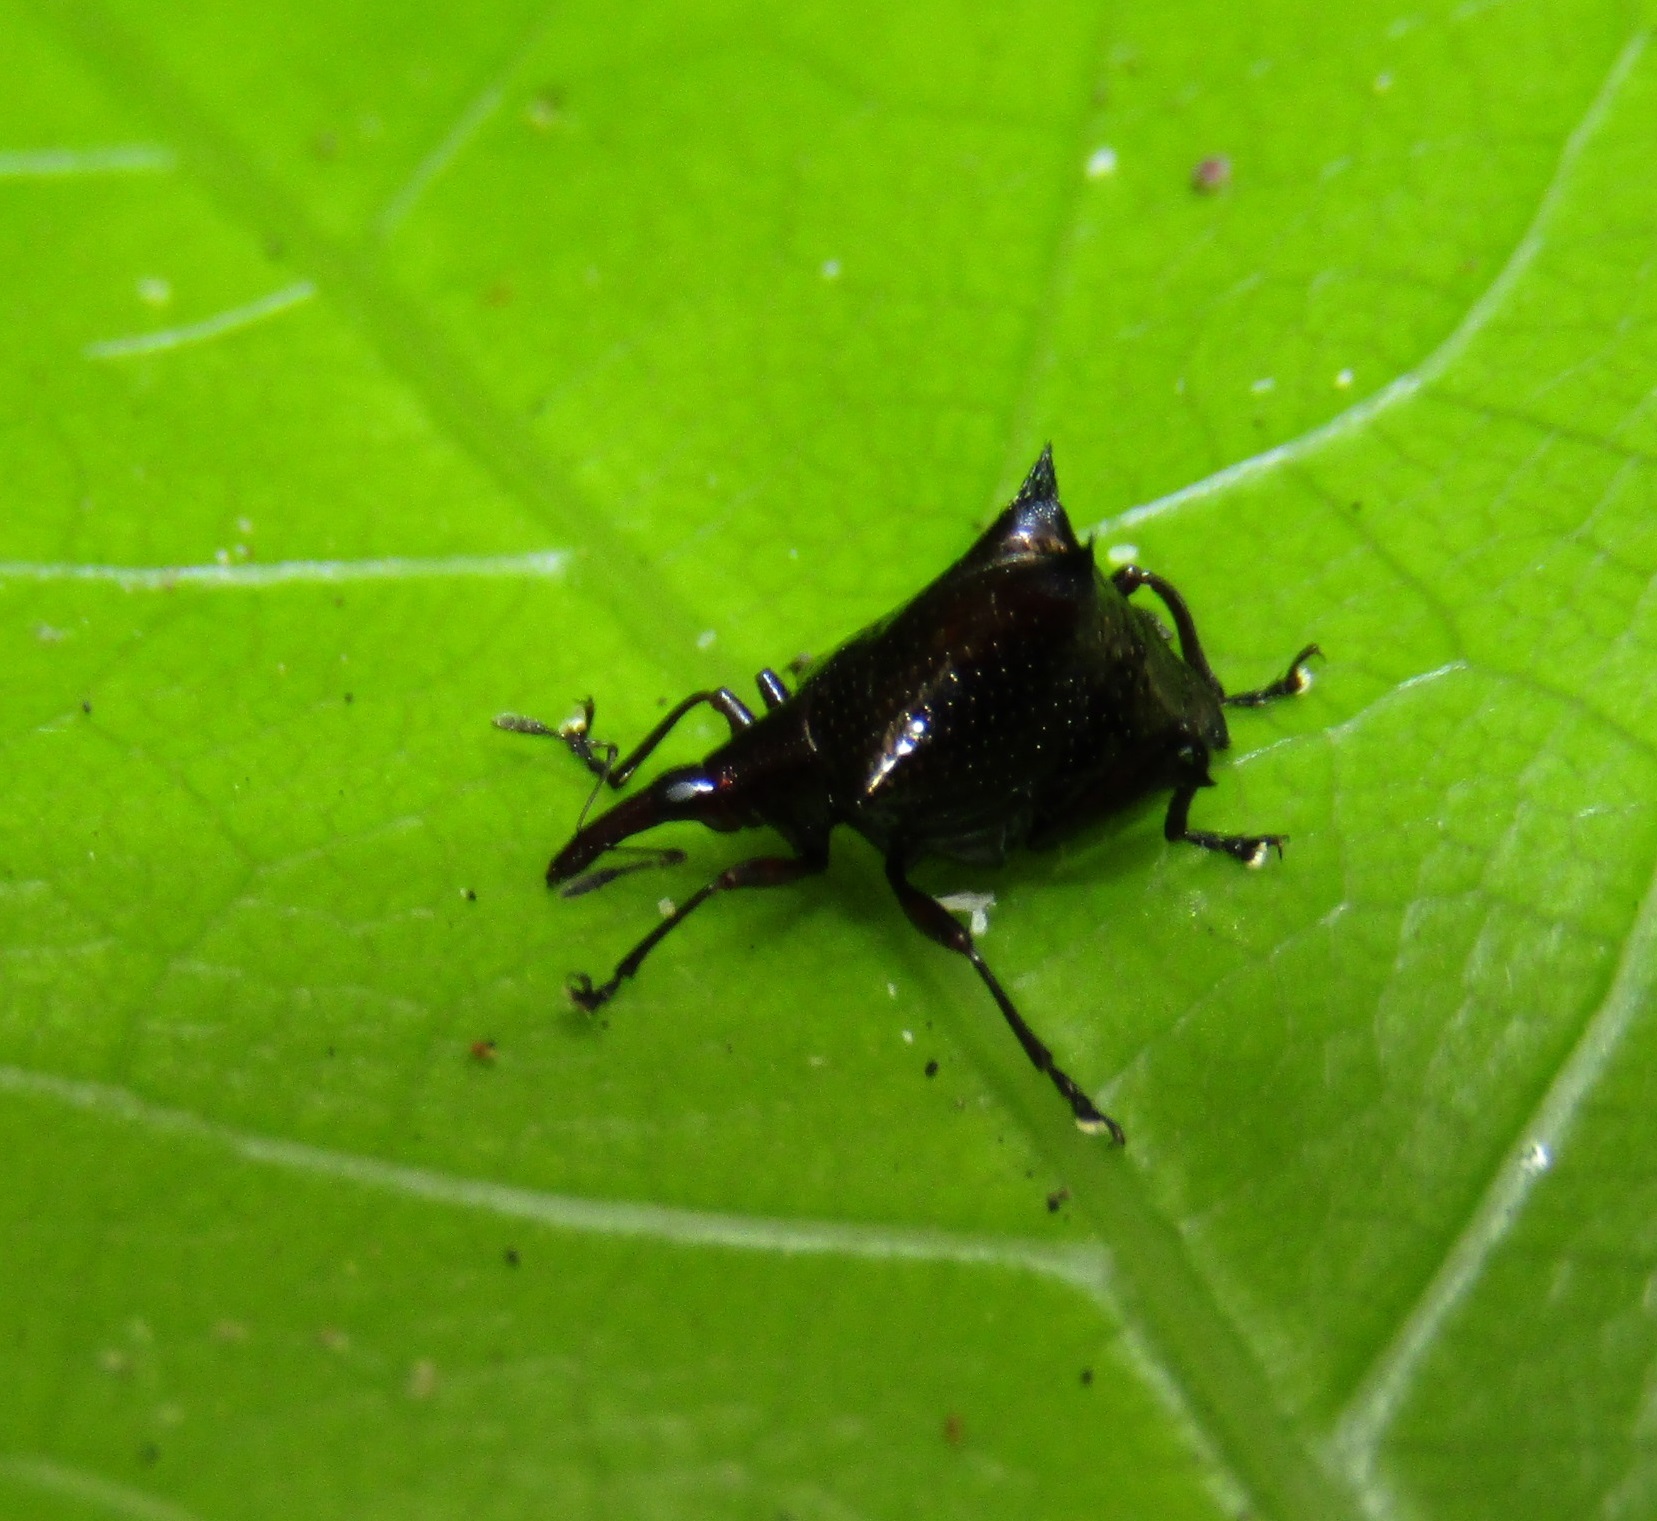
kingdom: Animalia
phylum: Arthropoda
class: Insecta
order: Coleoptera
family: Curculionidae
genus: Scolopterus
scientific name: Scolopterus penicillatus
